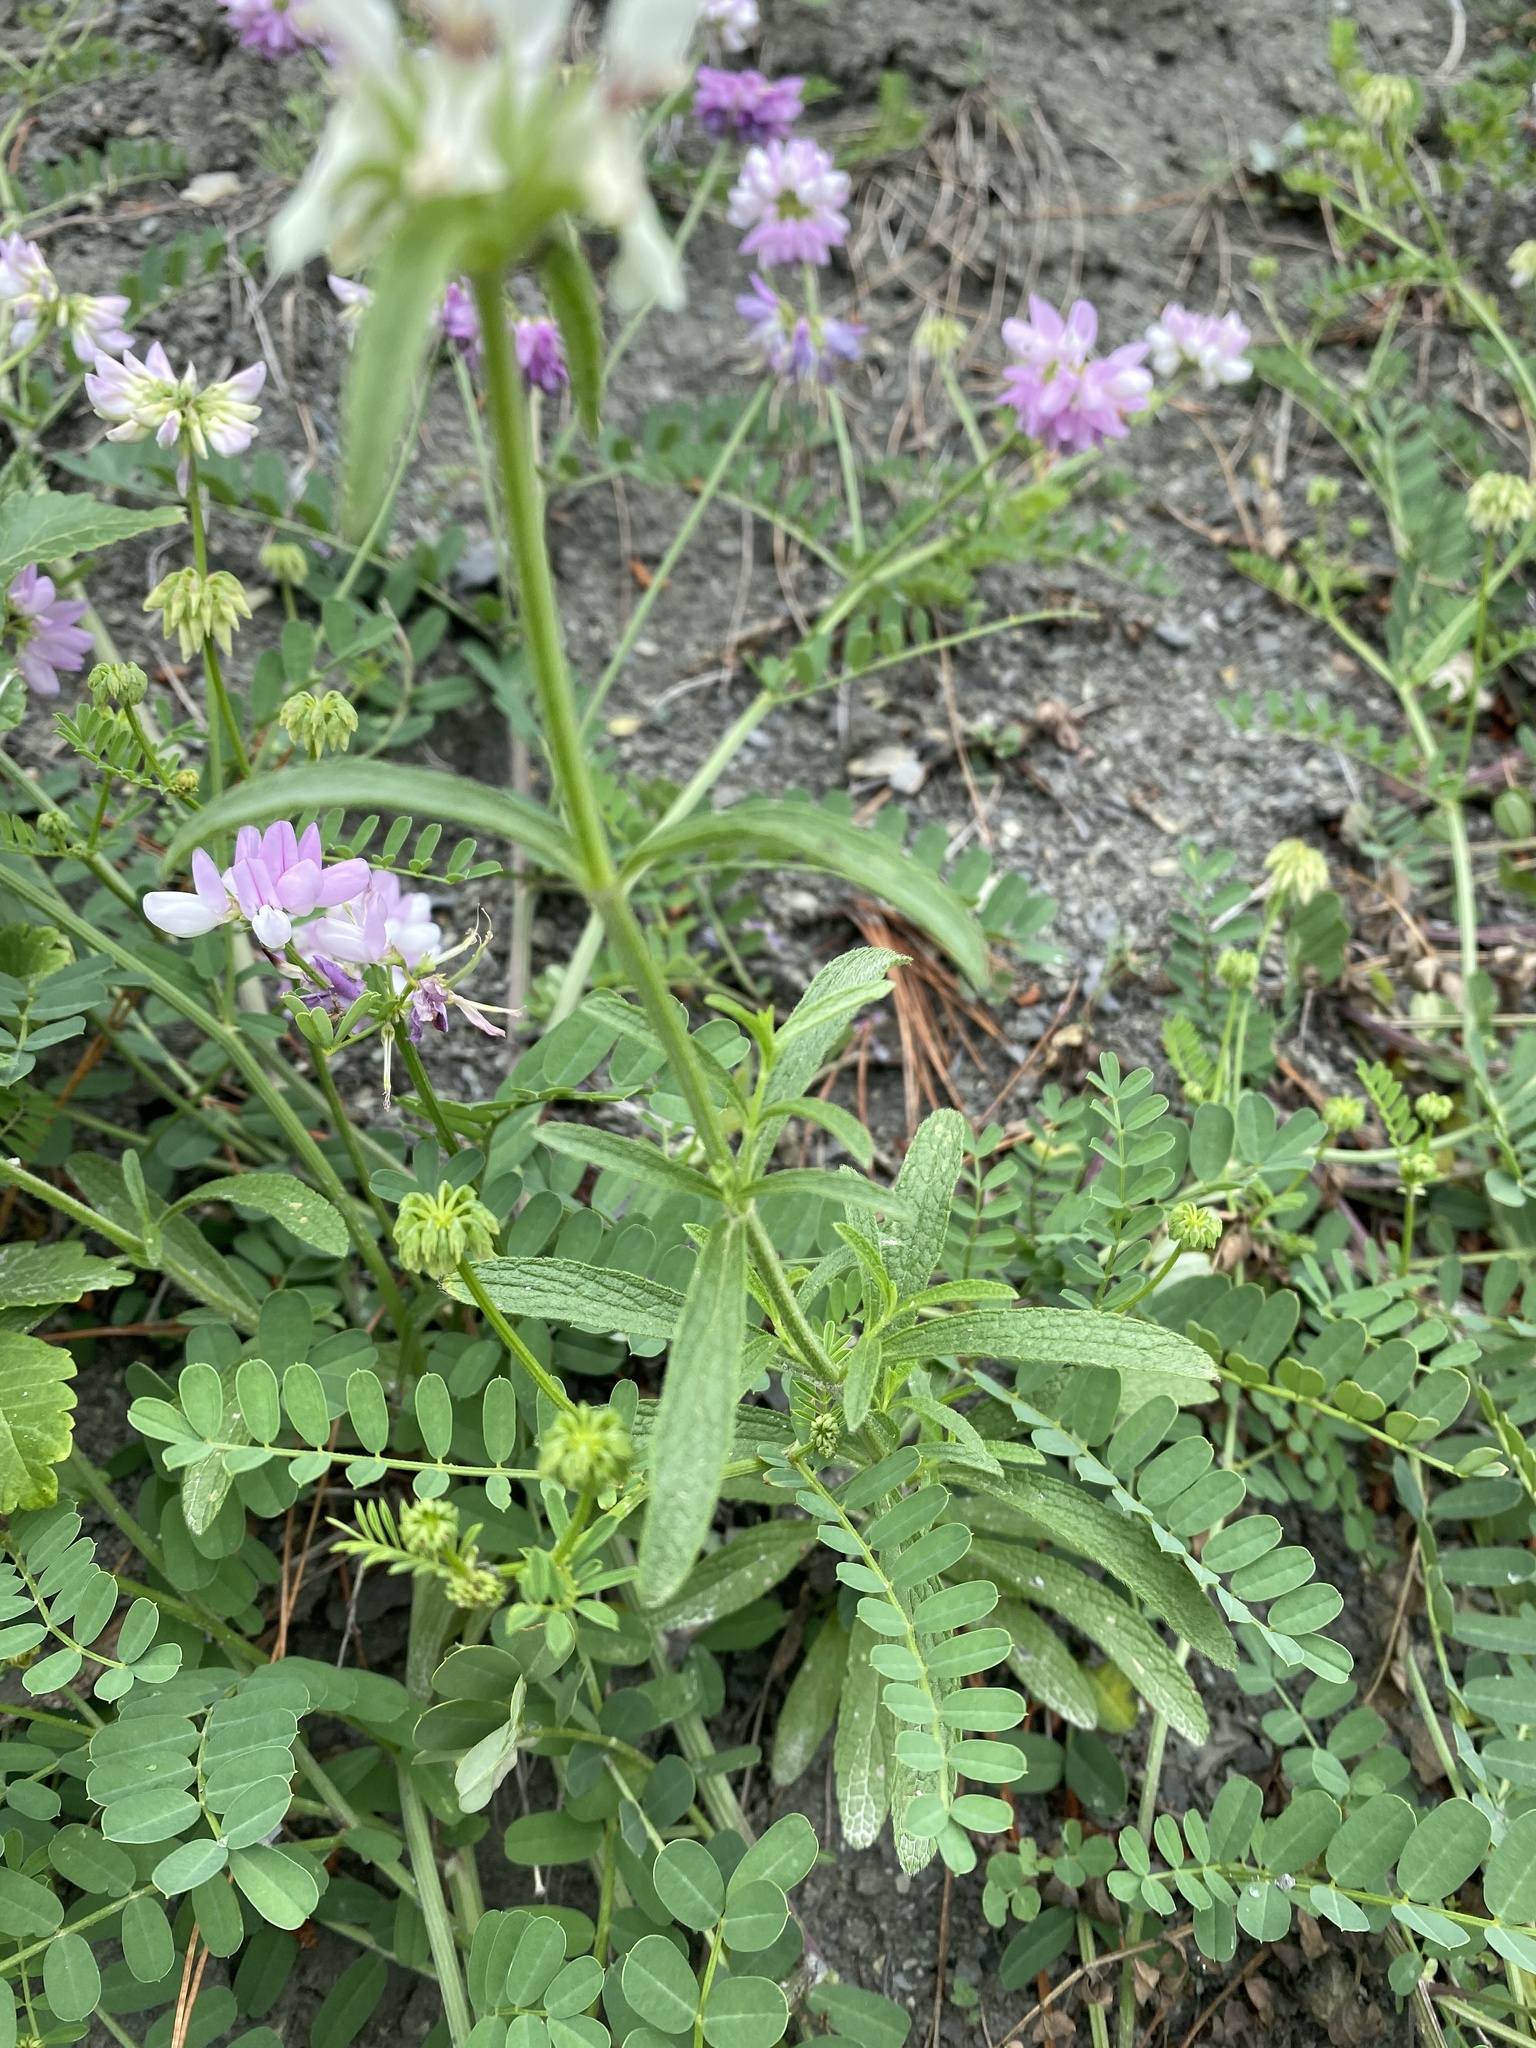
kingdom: Plantae
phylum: Tracheophyta
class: Magnoliopsida
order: Lamiales
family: Lamiaceae
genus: Stachys
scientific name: Stachys atherocalyx
